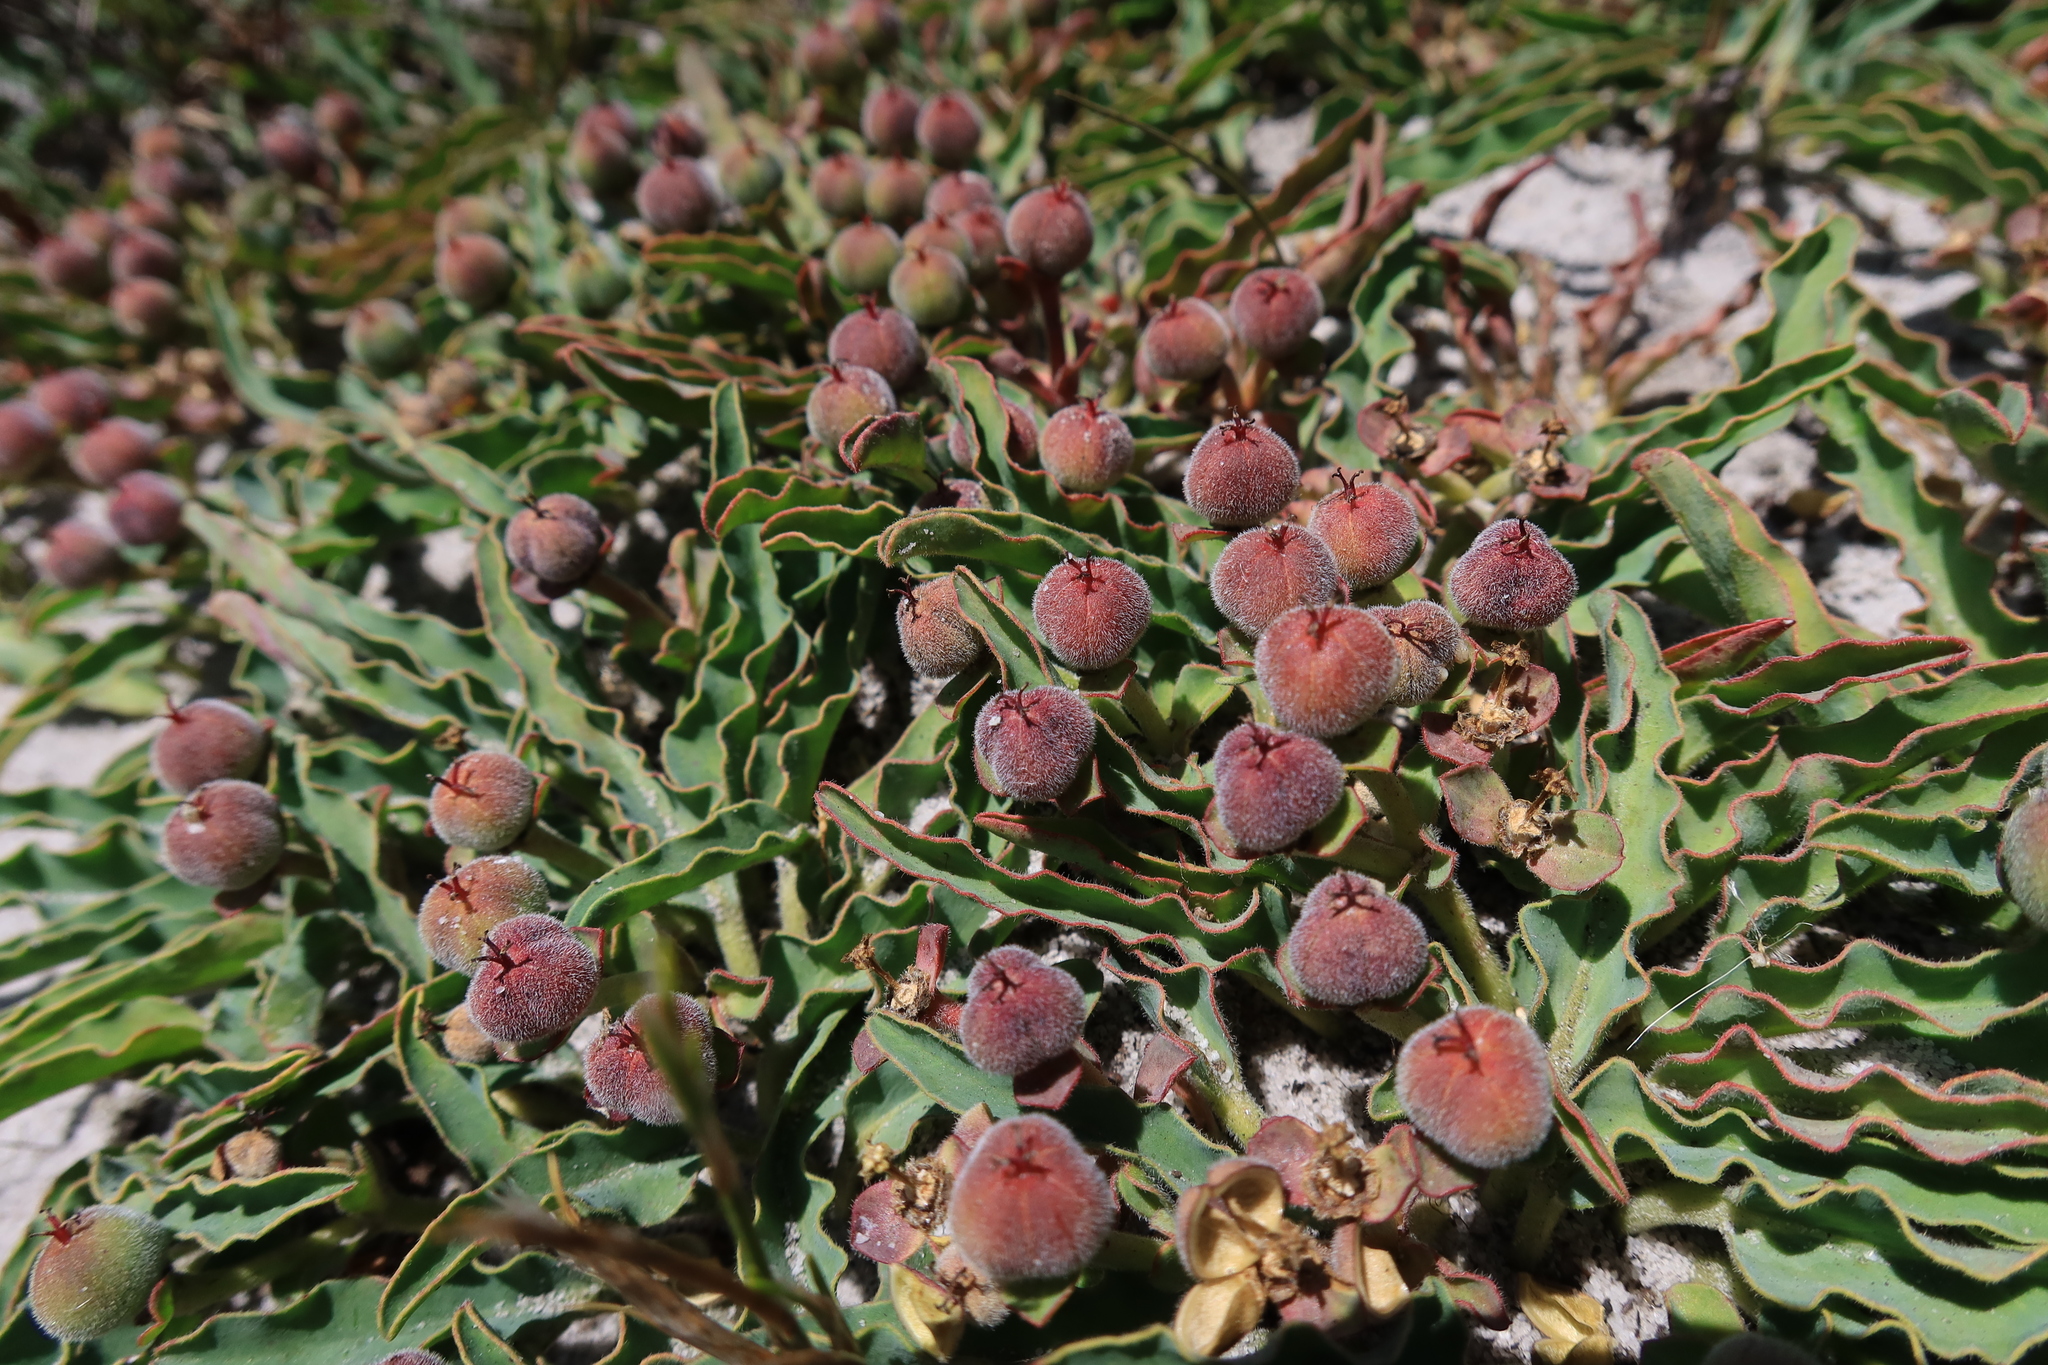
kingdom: Plantae
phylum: Tracheophyta
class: Magnoliopsida
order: Malpighiales
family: Euphorbiaceae
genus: Euphorbia
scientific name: Euphorbia tuberosa
